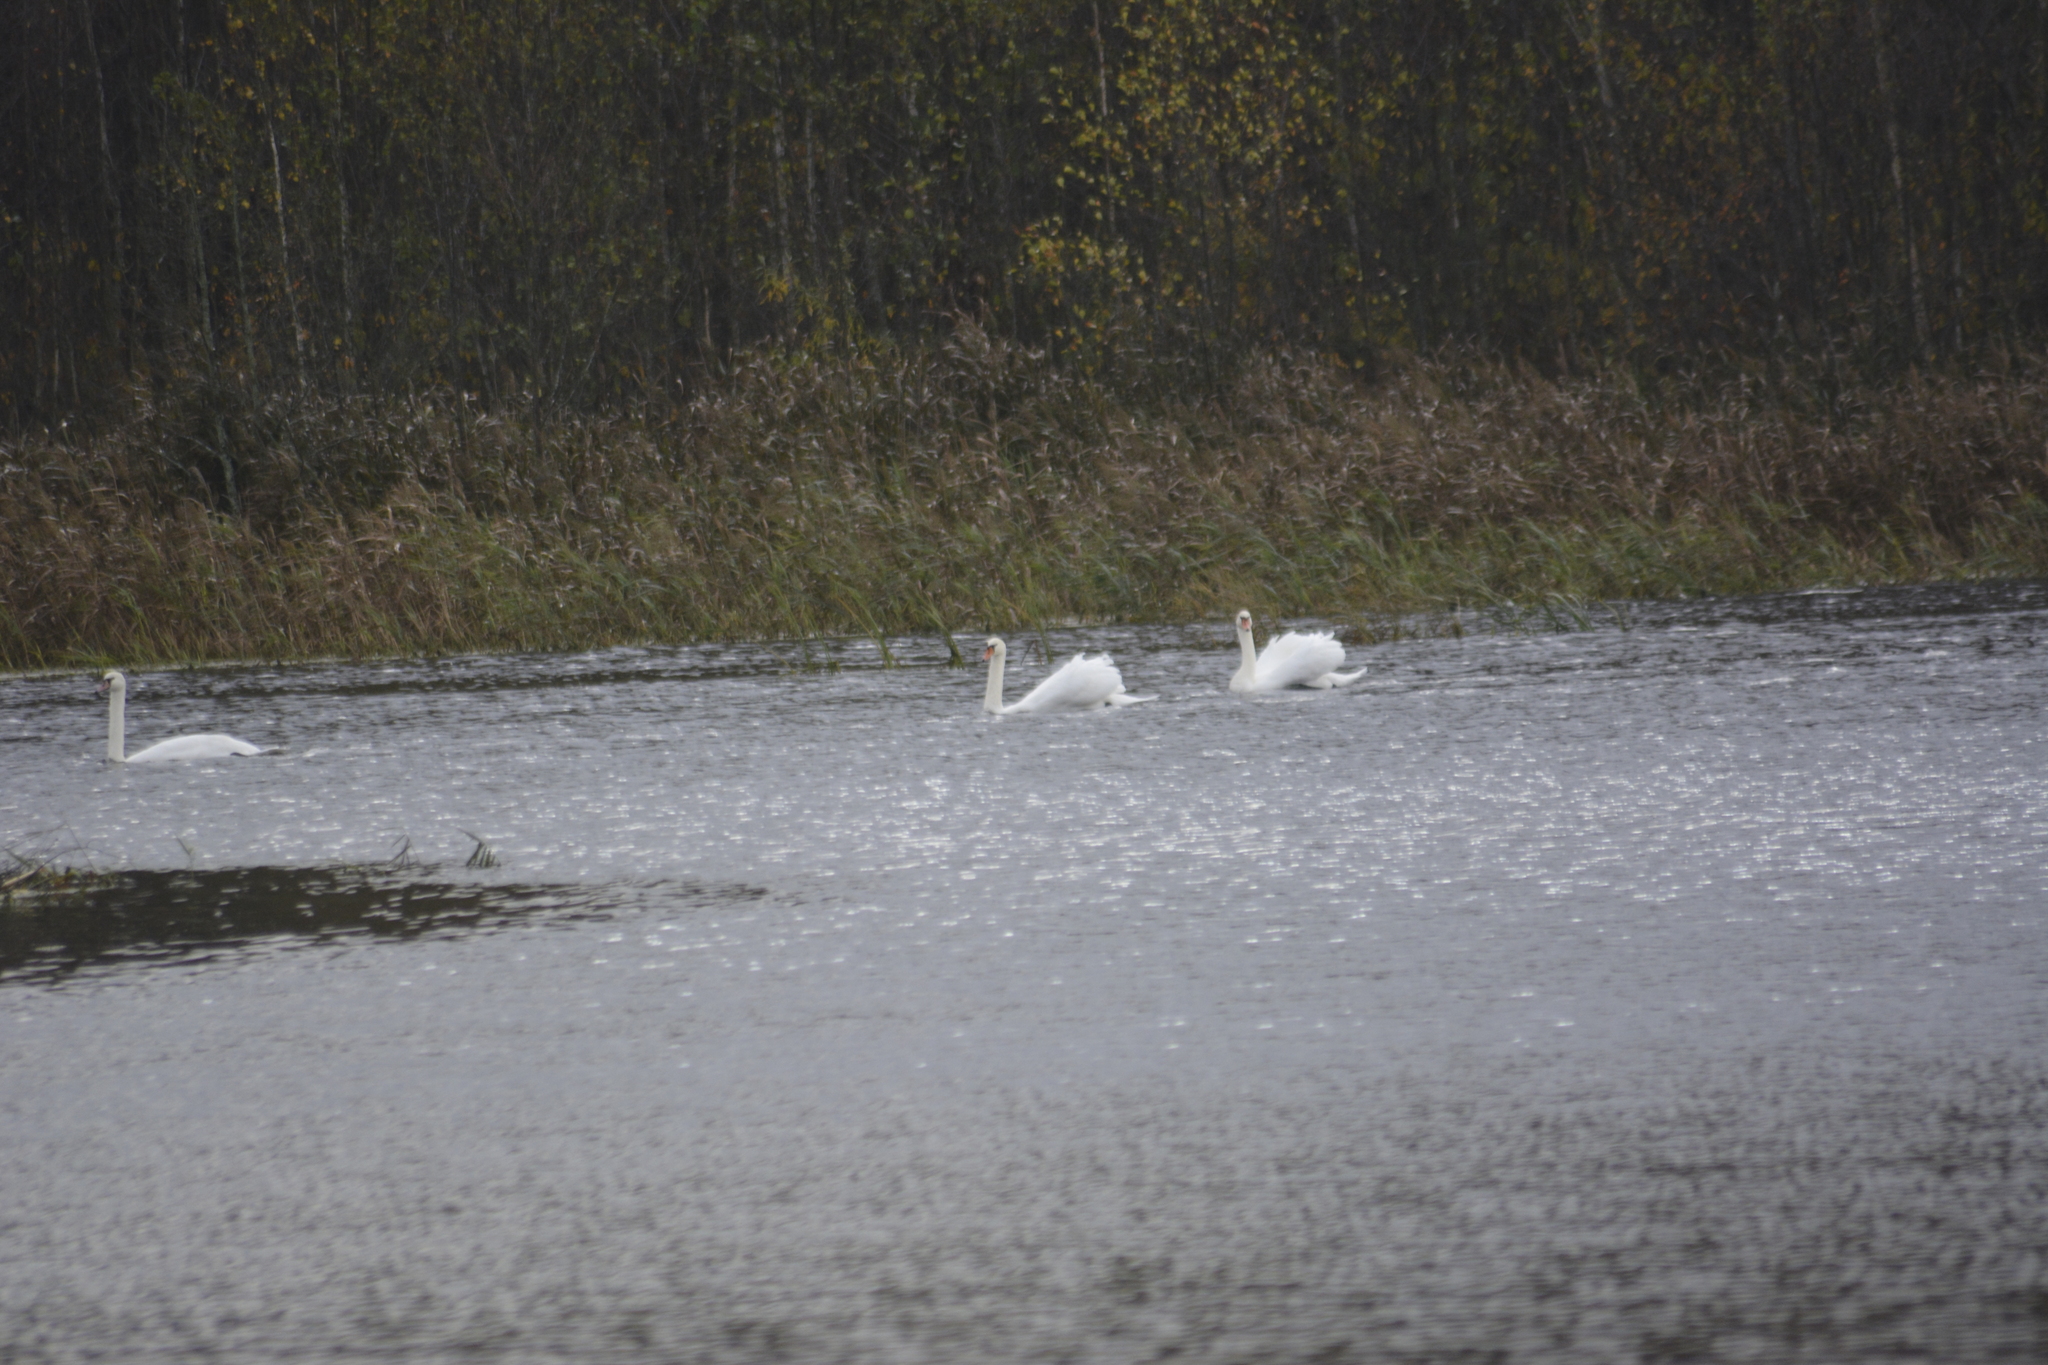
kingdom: Animalia
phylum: Chordata
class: Aves
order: Anseriformes
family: Anatidae
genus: Cygnus
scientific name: Cygnus olor
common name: Mute swan
